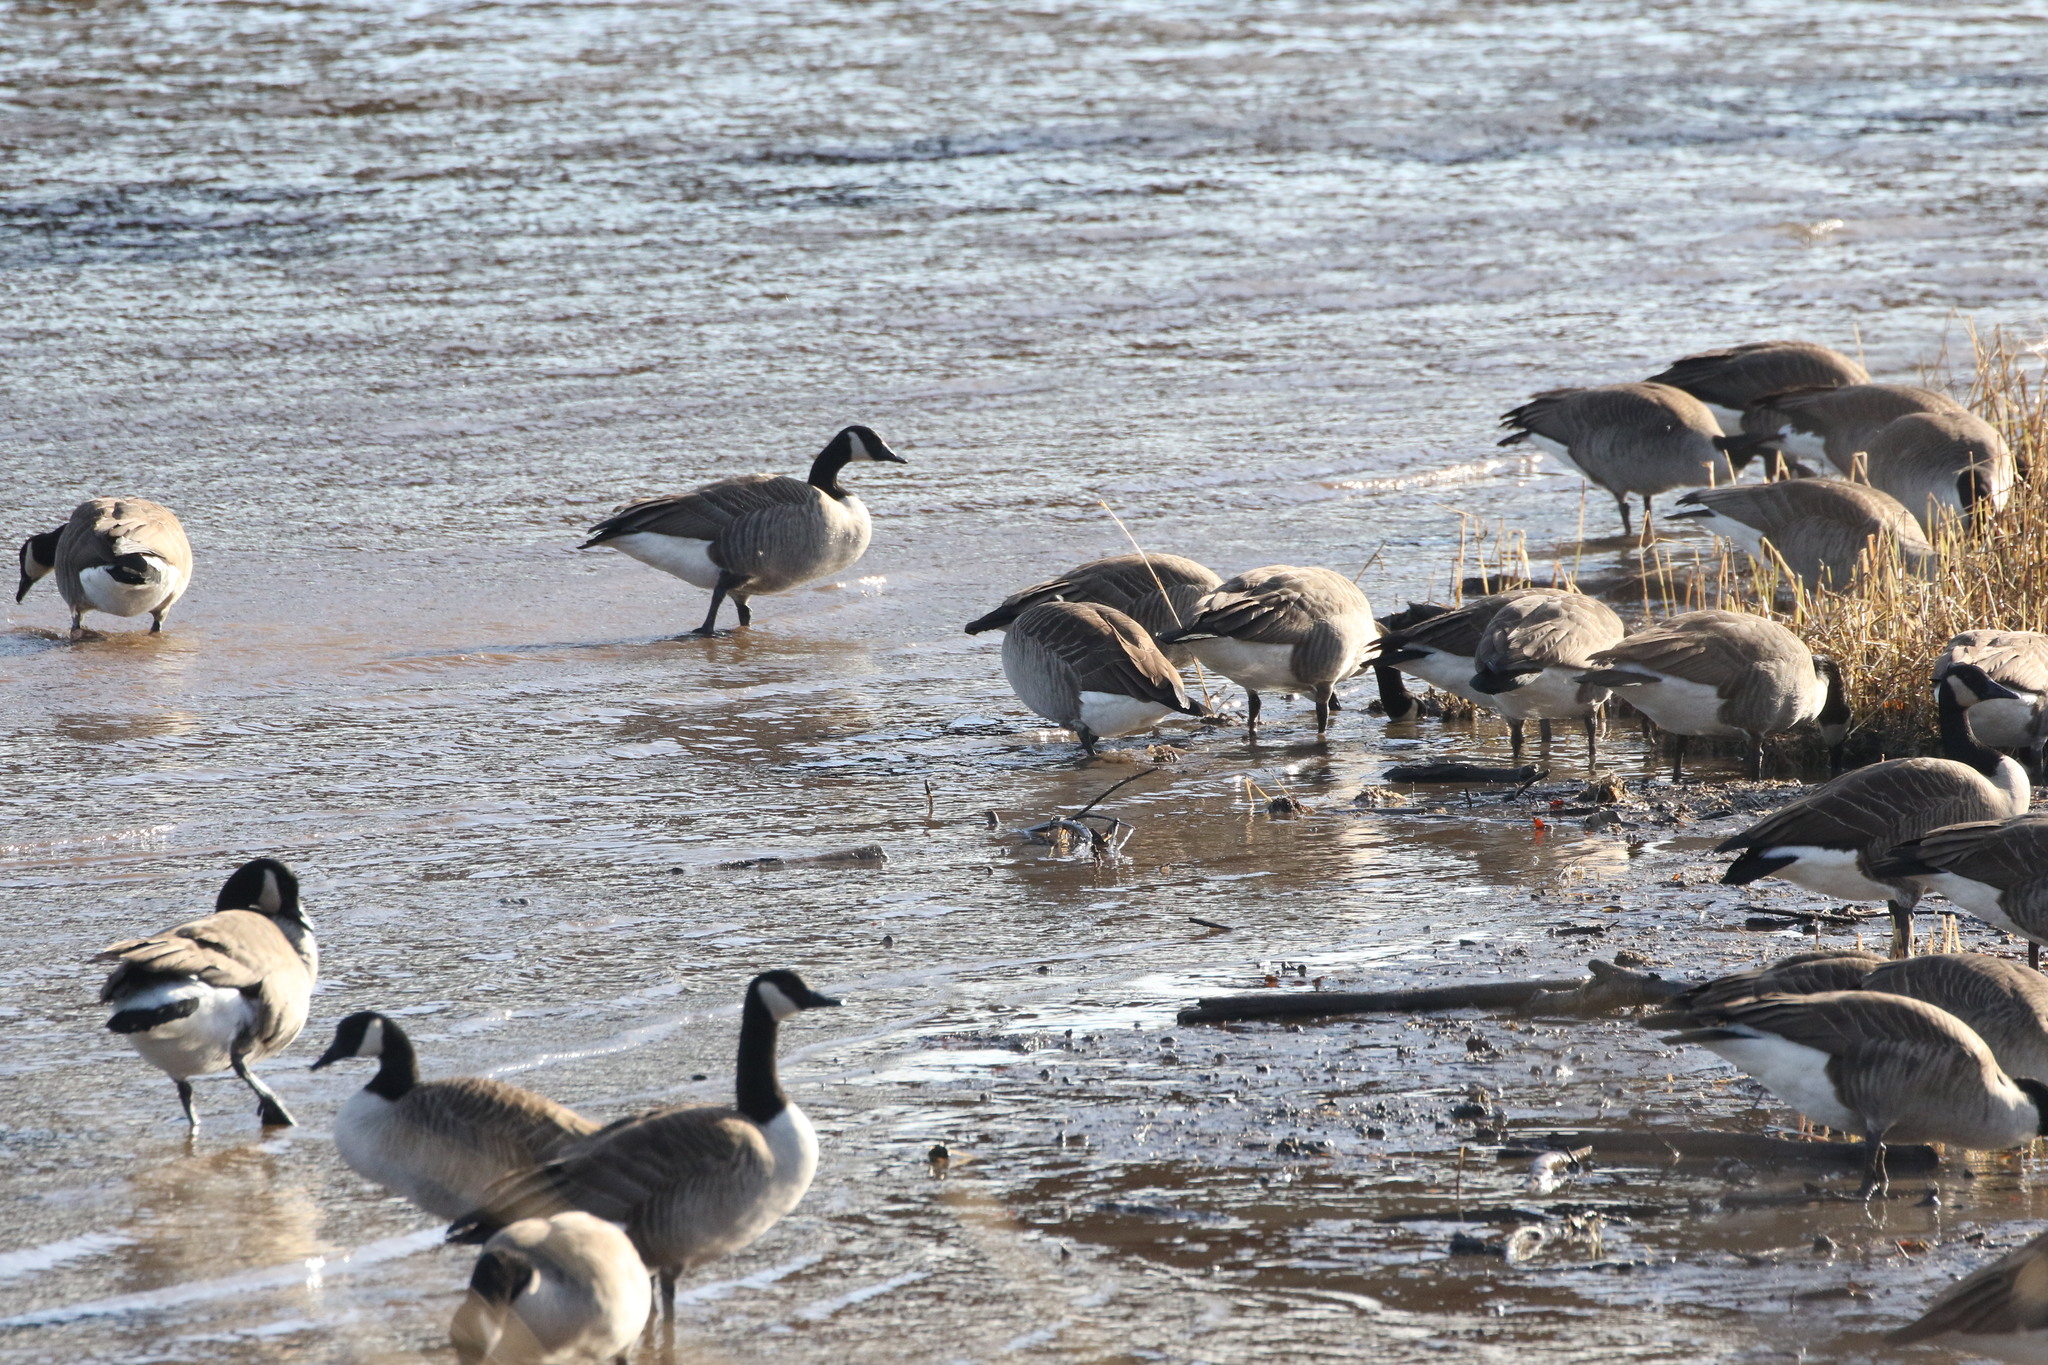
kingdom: Animalia
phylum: Chordata
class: Aves
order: Anseriformes
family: Anatidae
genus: Branta
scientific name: Branta canadensis
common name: Canada goose
